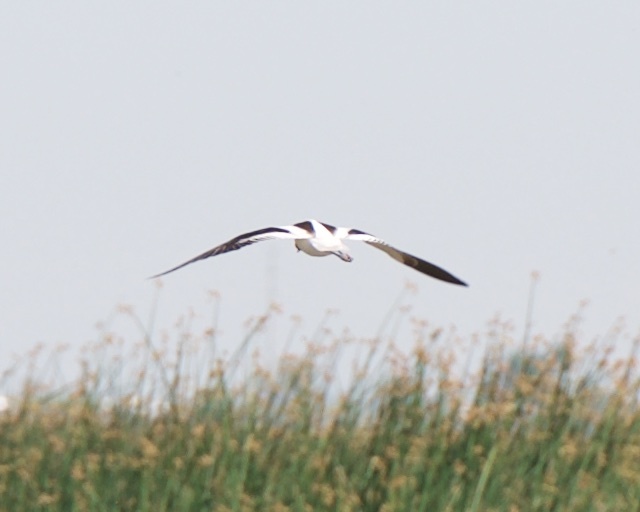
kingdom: Animalia
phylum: Chordata
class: Aves
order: Charadriiformes
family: Recurvirostridae
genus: Recurvirostra
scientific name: Recurvirostra americana
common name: American avocet
